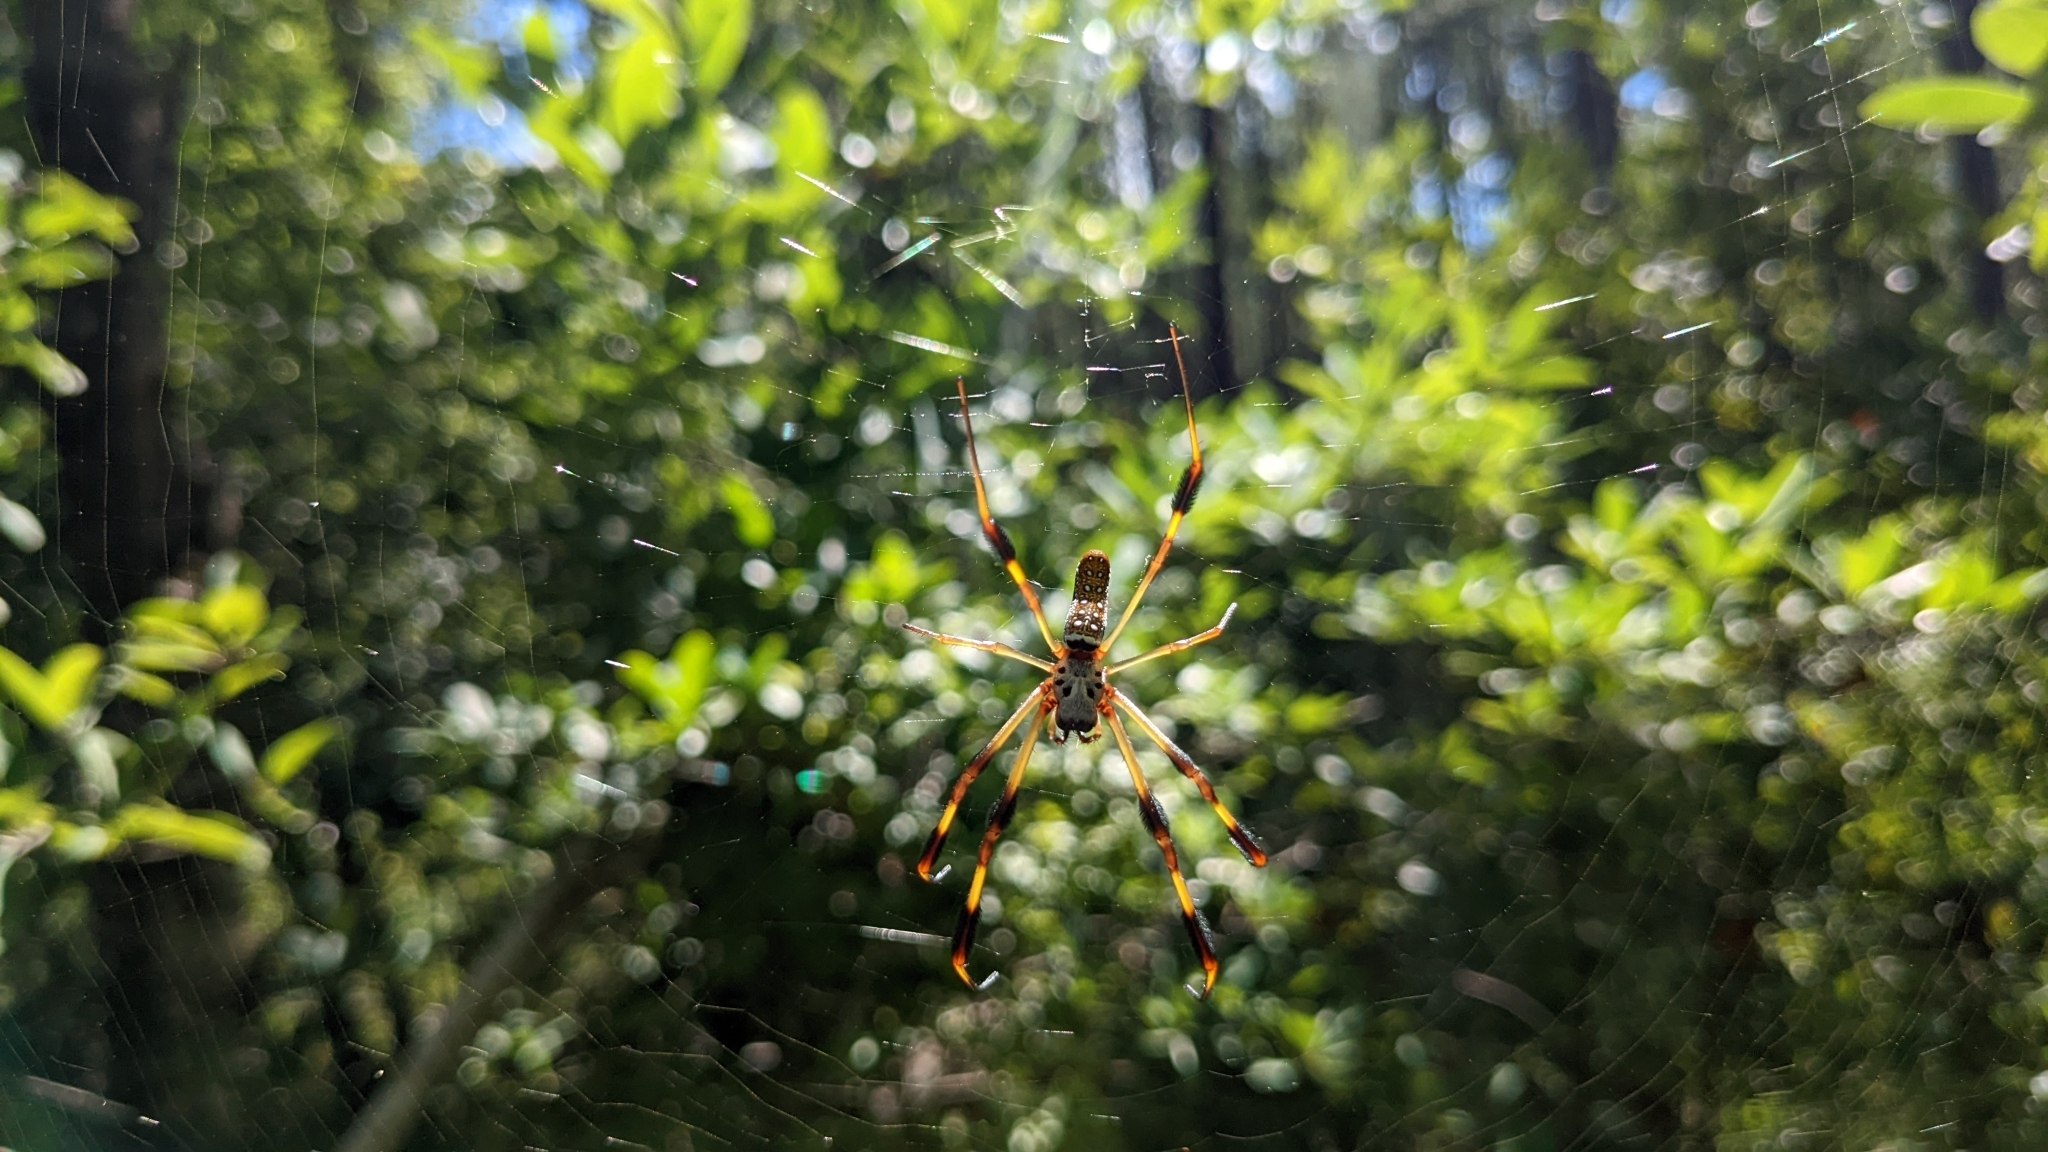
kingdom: Animalia
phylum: Arthropoda
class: Arachnida
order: Araneae
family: Araneidae
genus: Trichonephila
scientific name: Trichonephila clavipes
